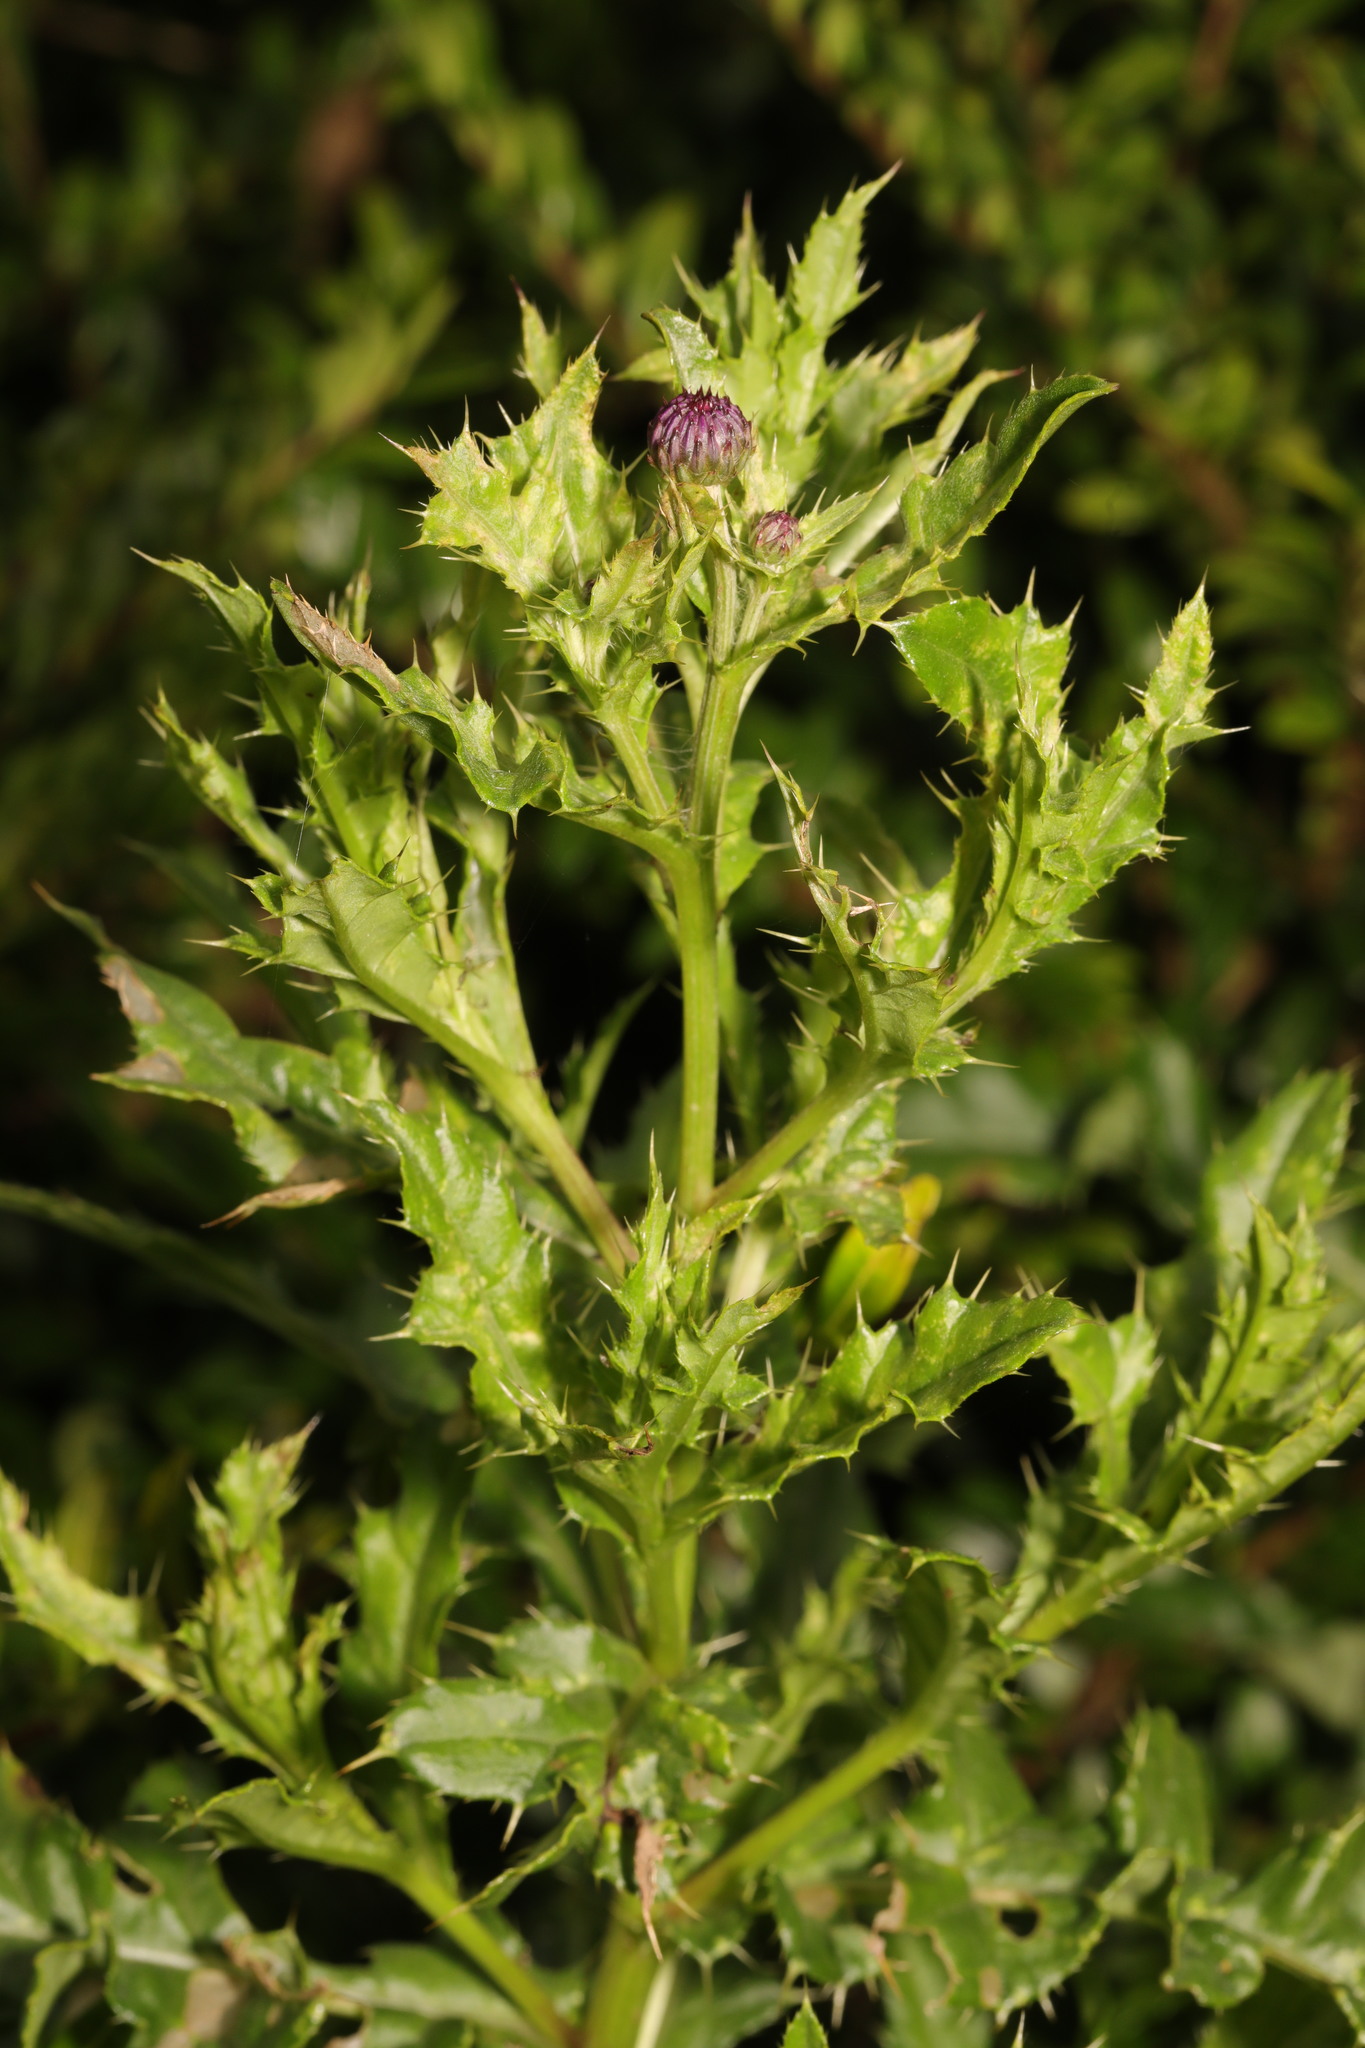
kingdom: Plantae
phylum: Tracheophyta
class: Magnoliopsida
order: Asterales
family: Asteraceae
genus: Cirsium
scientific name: Cirsium arvense
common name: Creeping thistle
